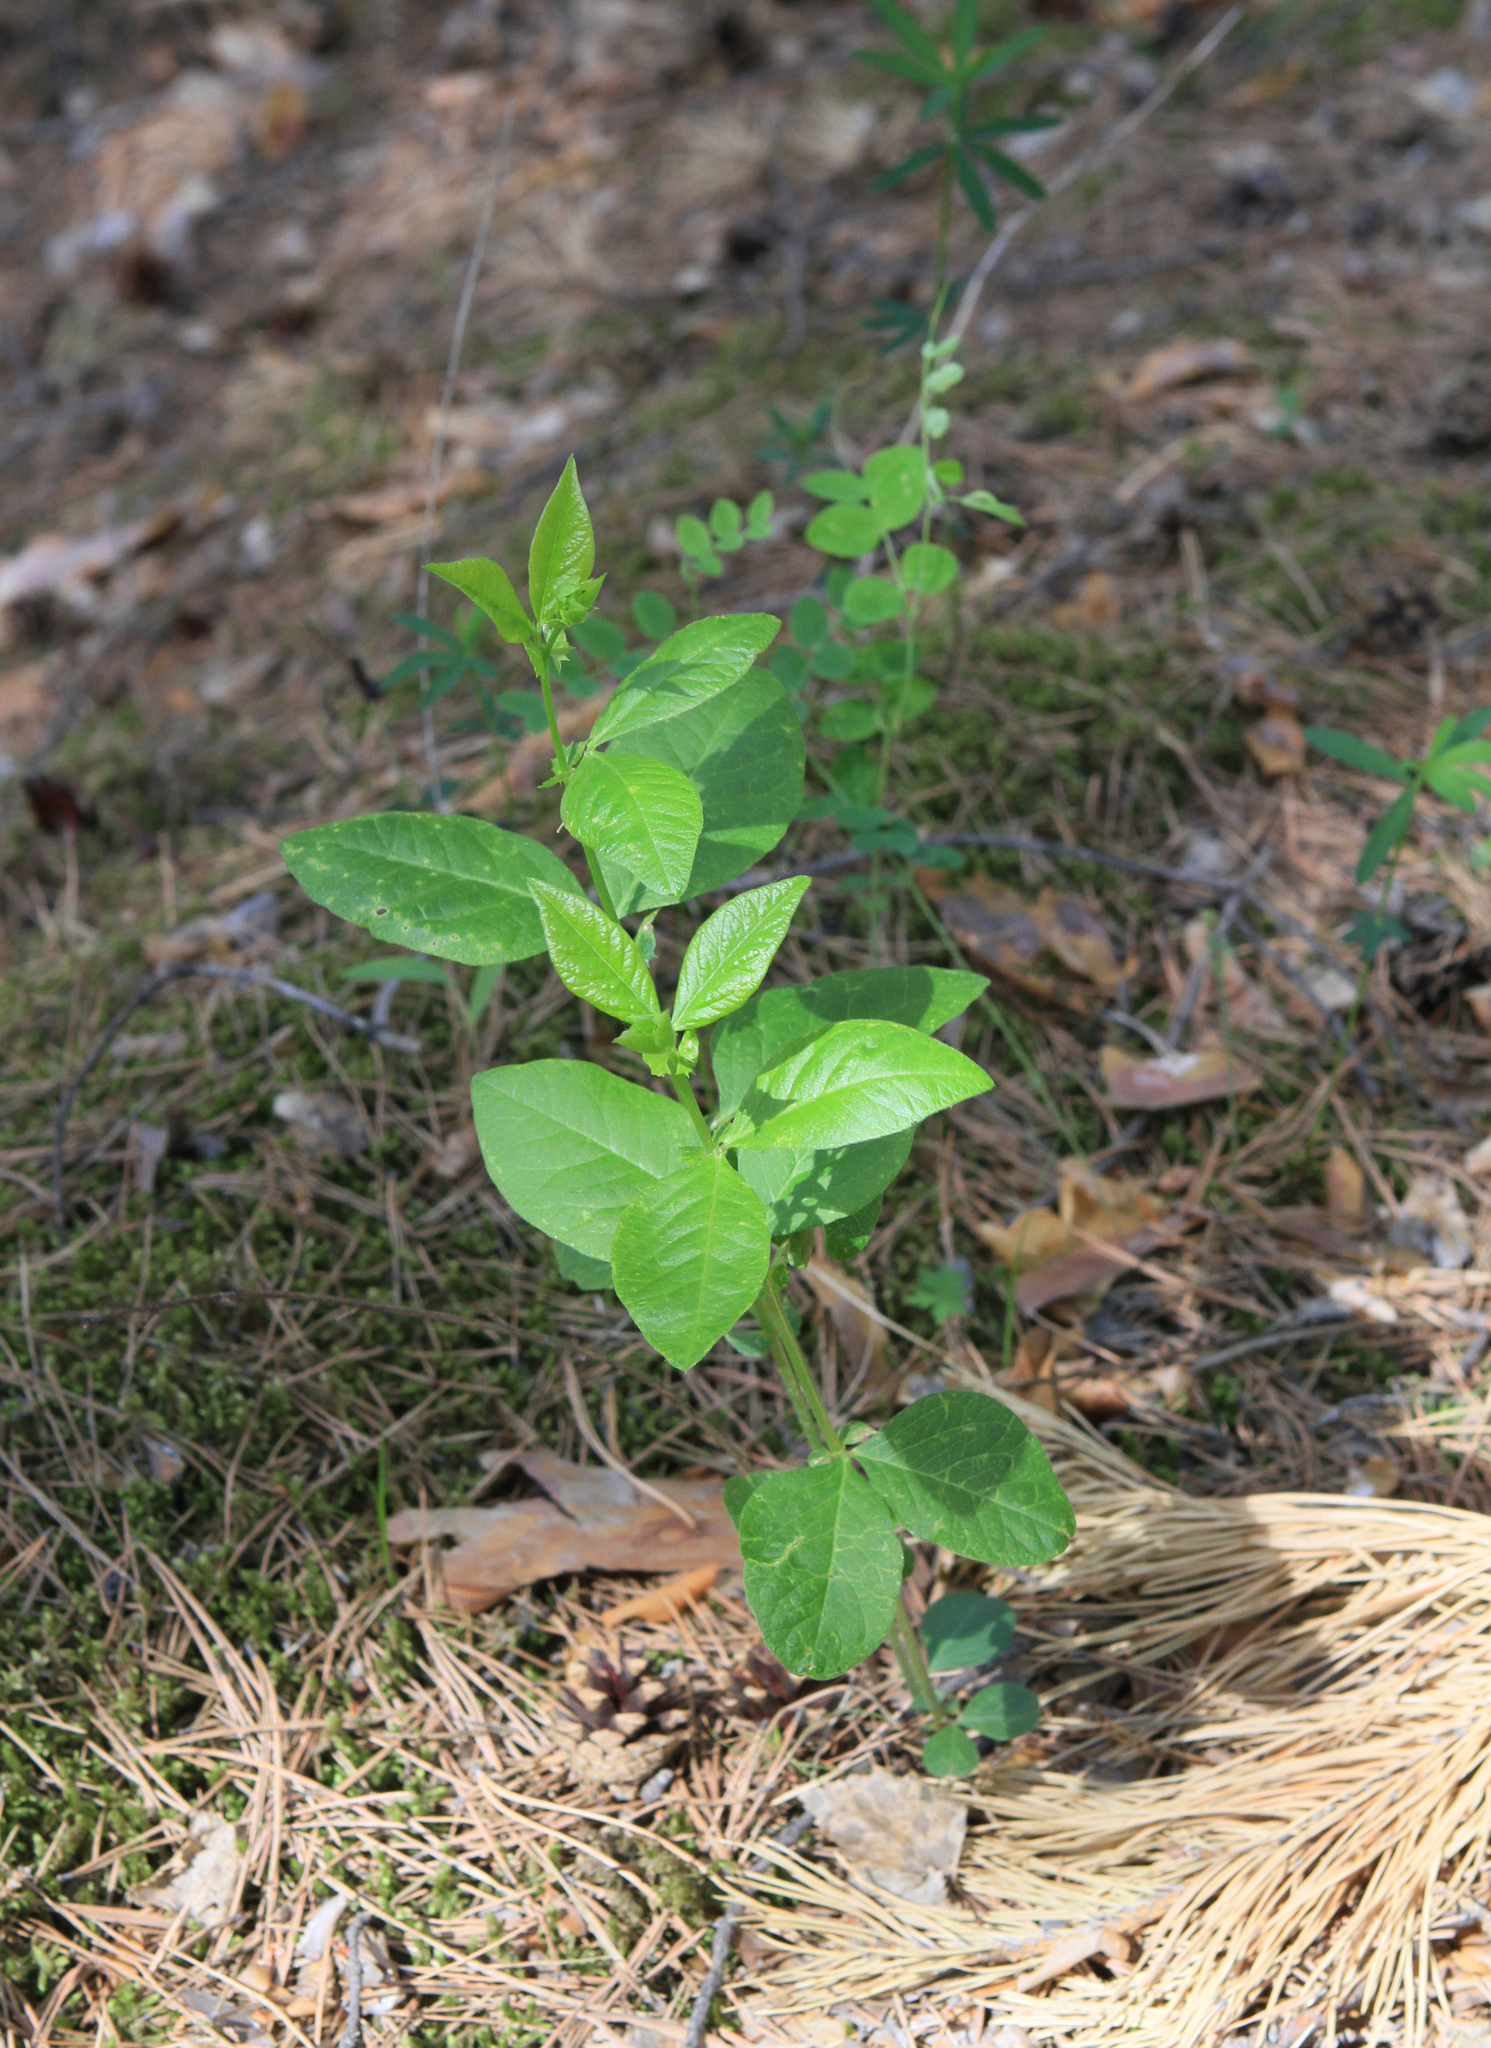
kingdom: Plantae
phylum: Tracheophyta
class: Magnoliopsida
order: Fabales
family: Fabaceae
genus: Vicia
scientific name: Vicia unijuga
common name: Two-leaf vetch
